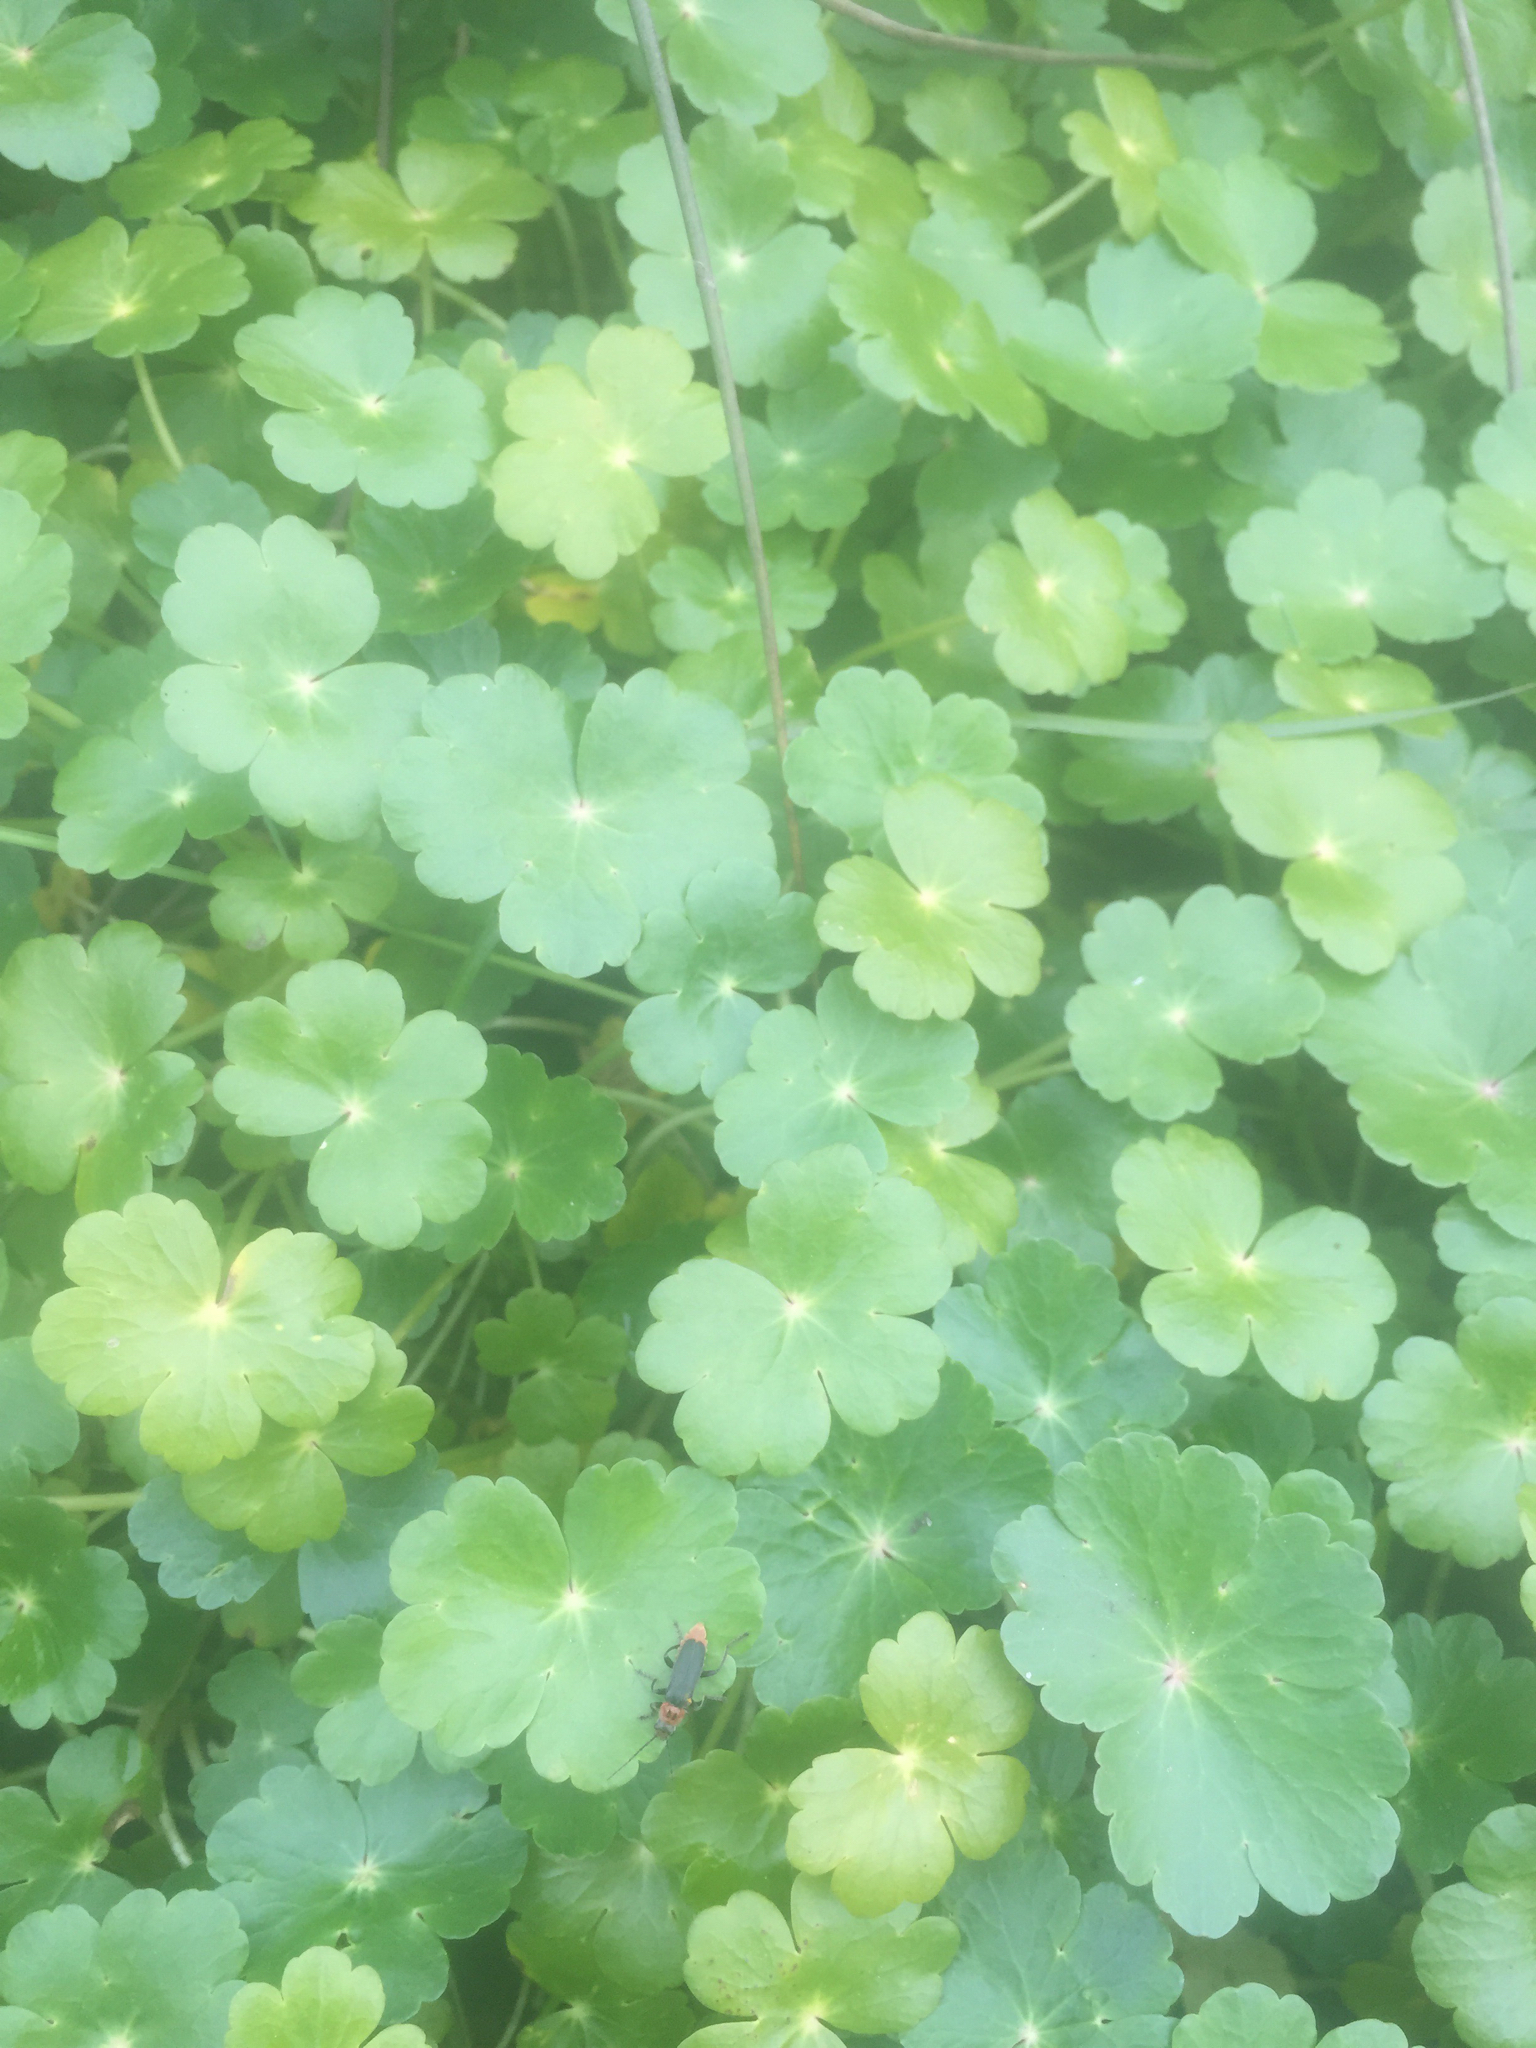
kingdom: Plantae
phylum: Tracheophyta
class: Magnoliopsida
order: Apiales
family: Araliaceae
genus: Hydrocotyle
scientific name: Hydrocotyle ranunculoides
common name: Floating pennywort
